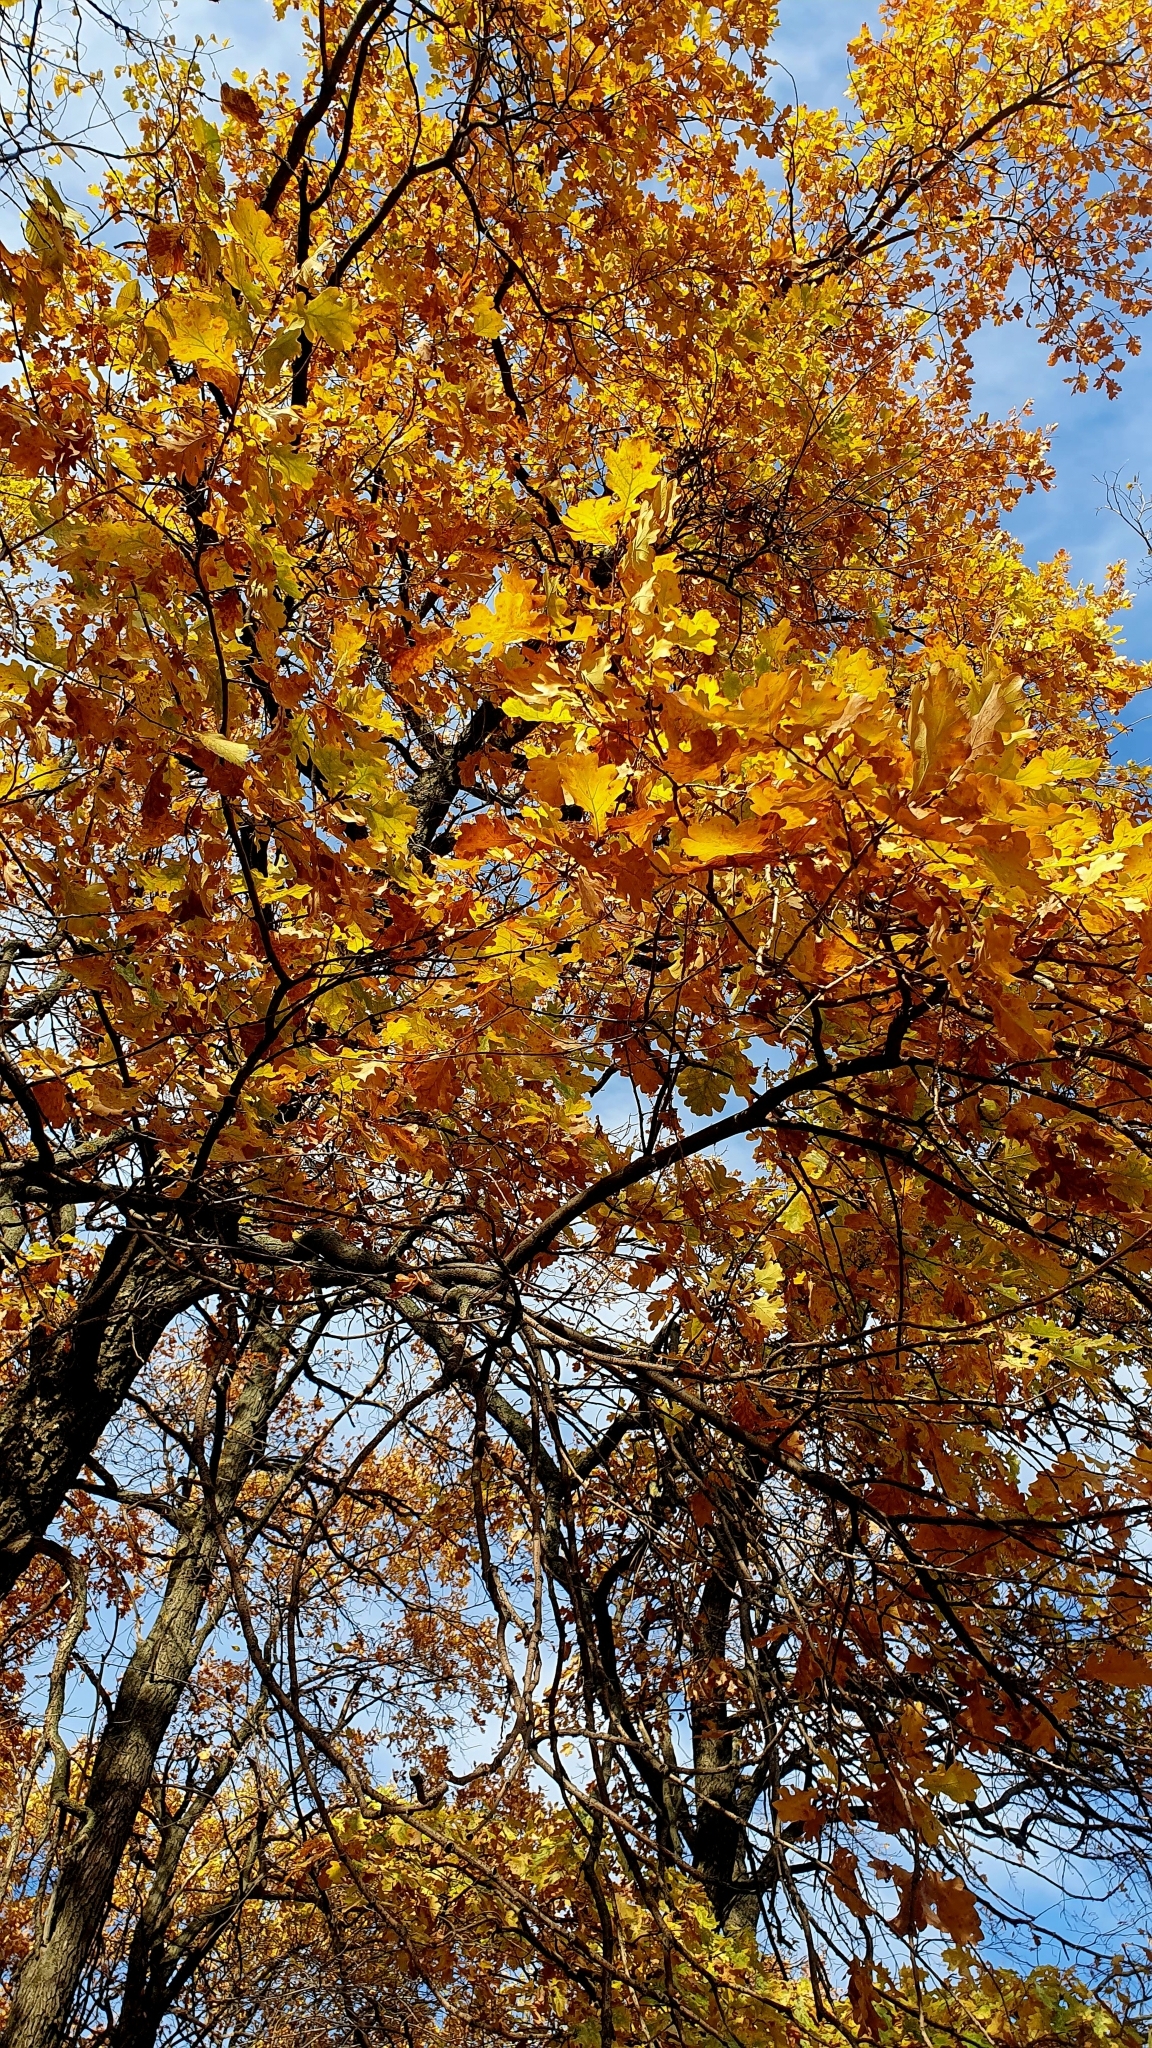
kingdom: Plantae
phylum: Tracheophyta
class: Magnoliopsida
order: Fagales
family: Fagaceae
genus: Quercus
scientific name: Quercus robur
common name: Pedunculate oak
